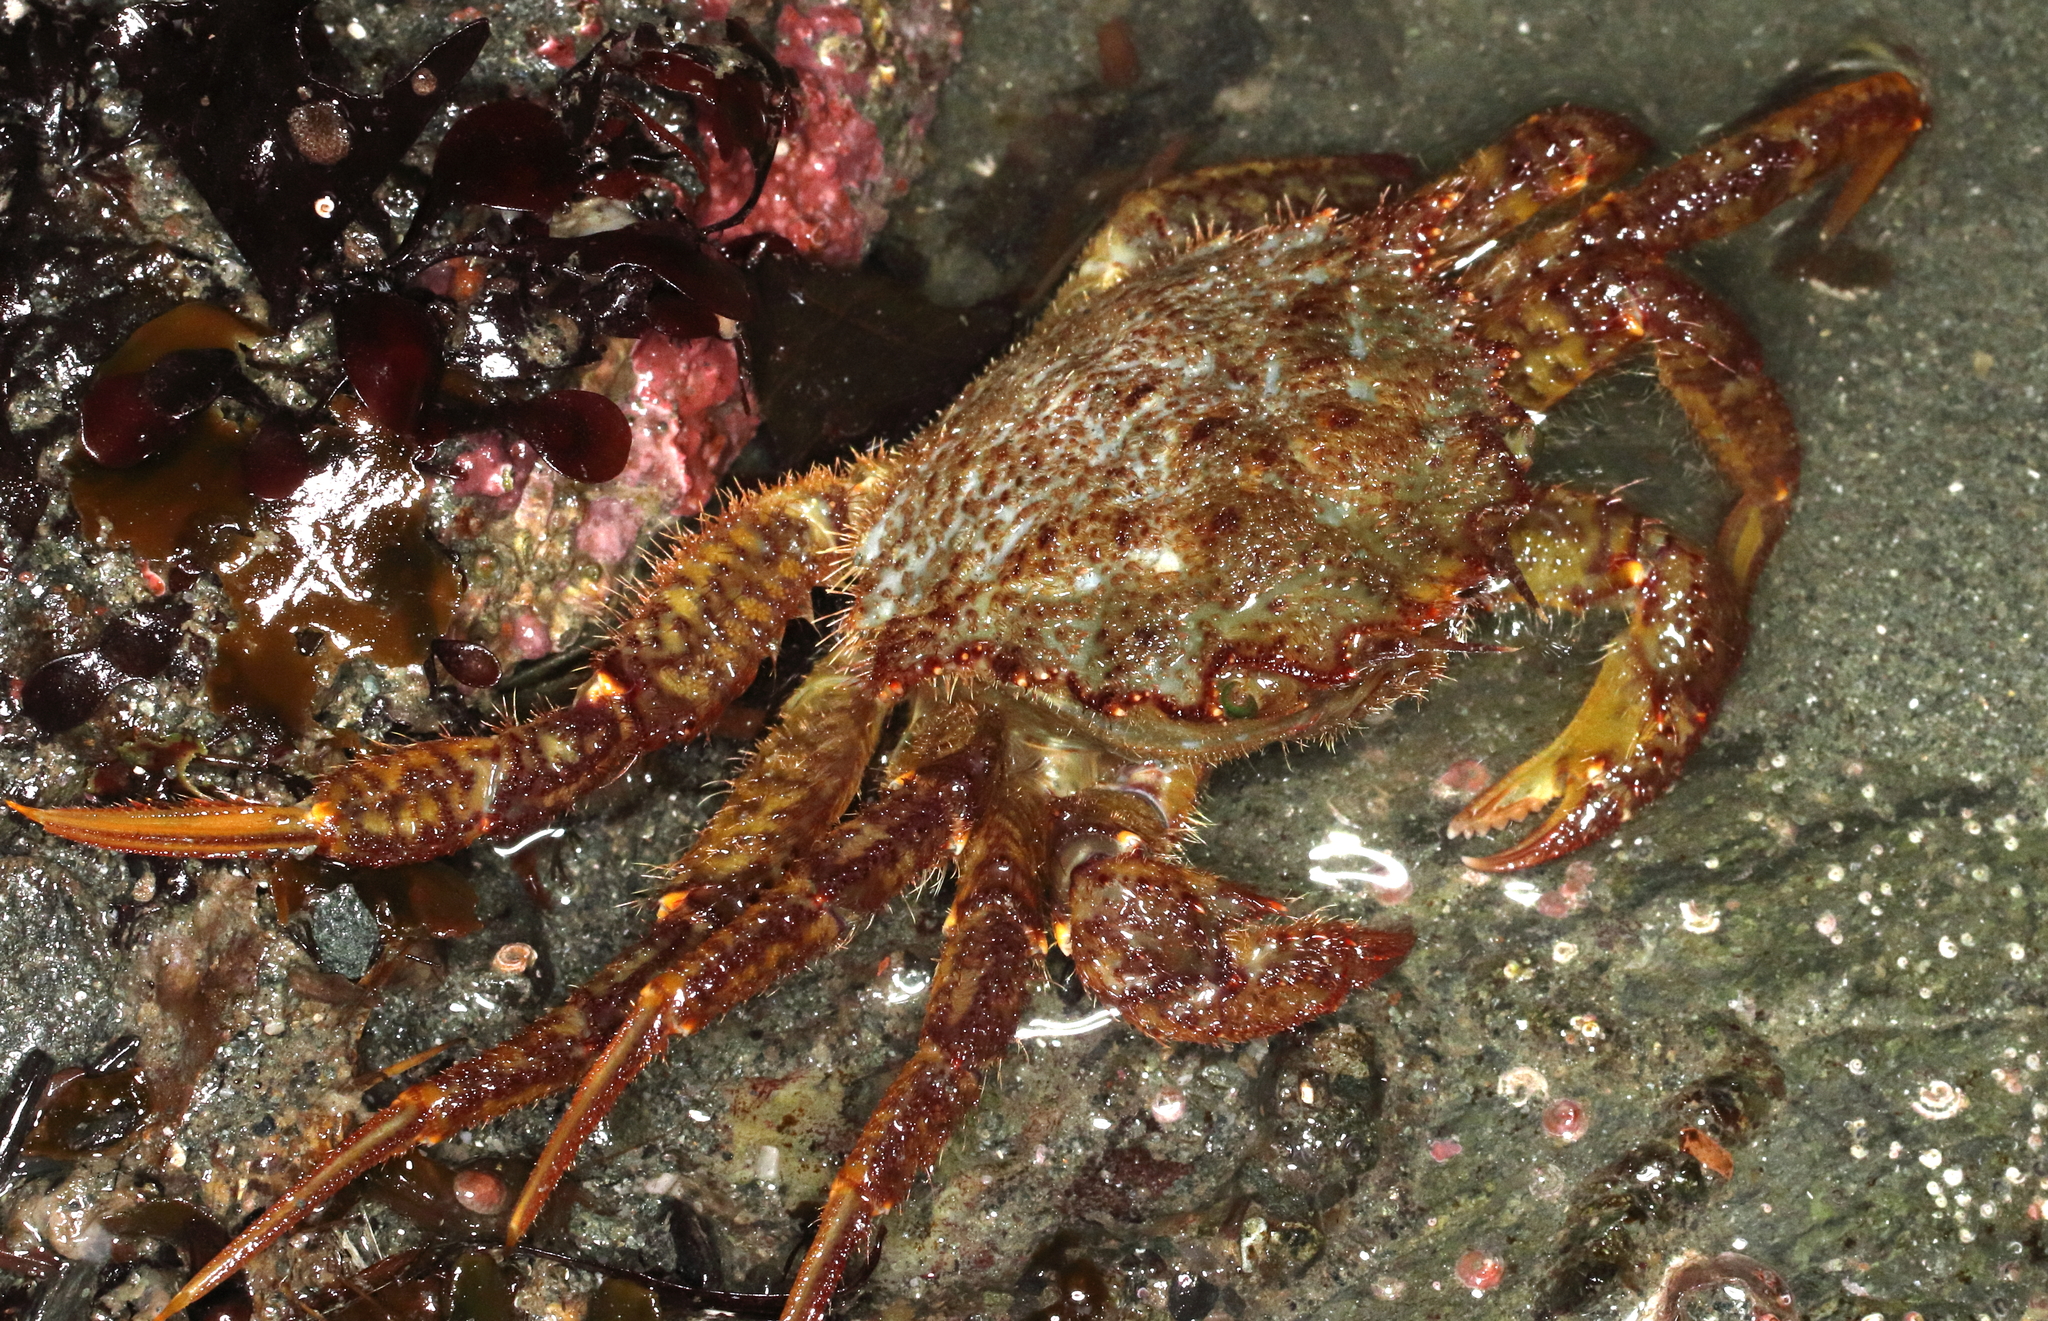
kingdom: Animalia
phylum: Arthropoda
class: Malacostraca
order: Decapoda
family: Cheiragonidae
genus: Telmessus
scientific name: Telmessus cheiragonus
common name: Helmet crab
